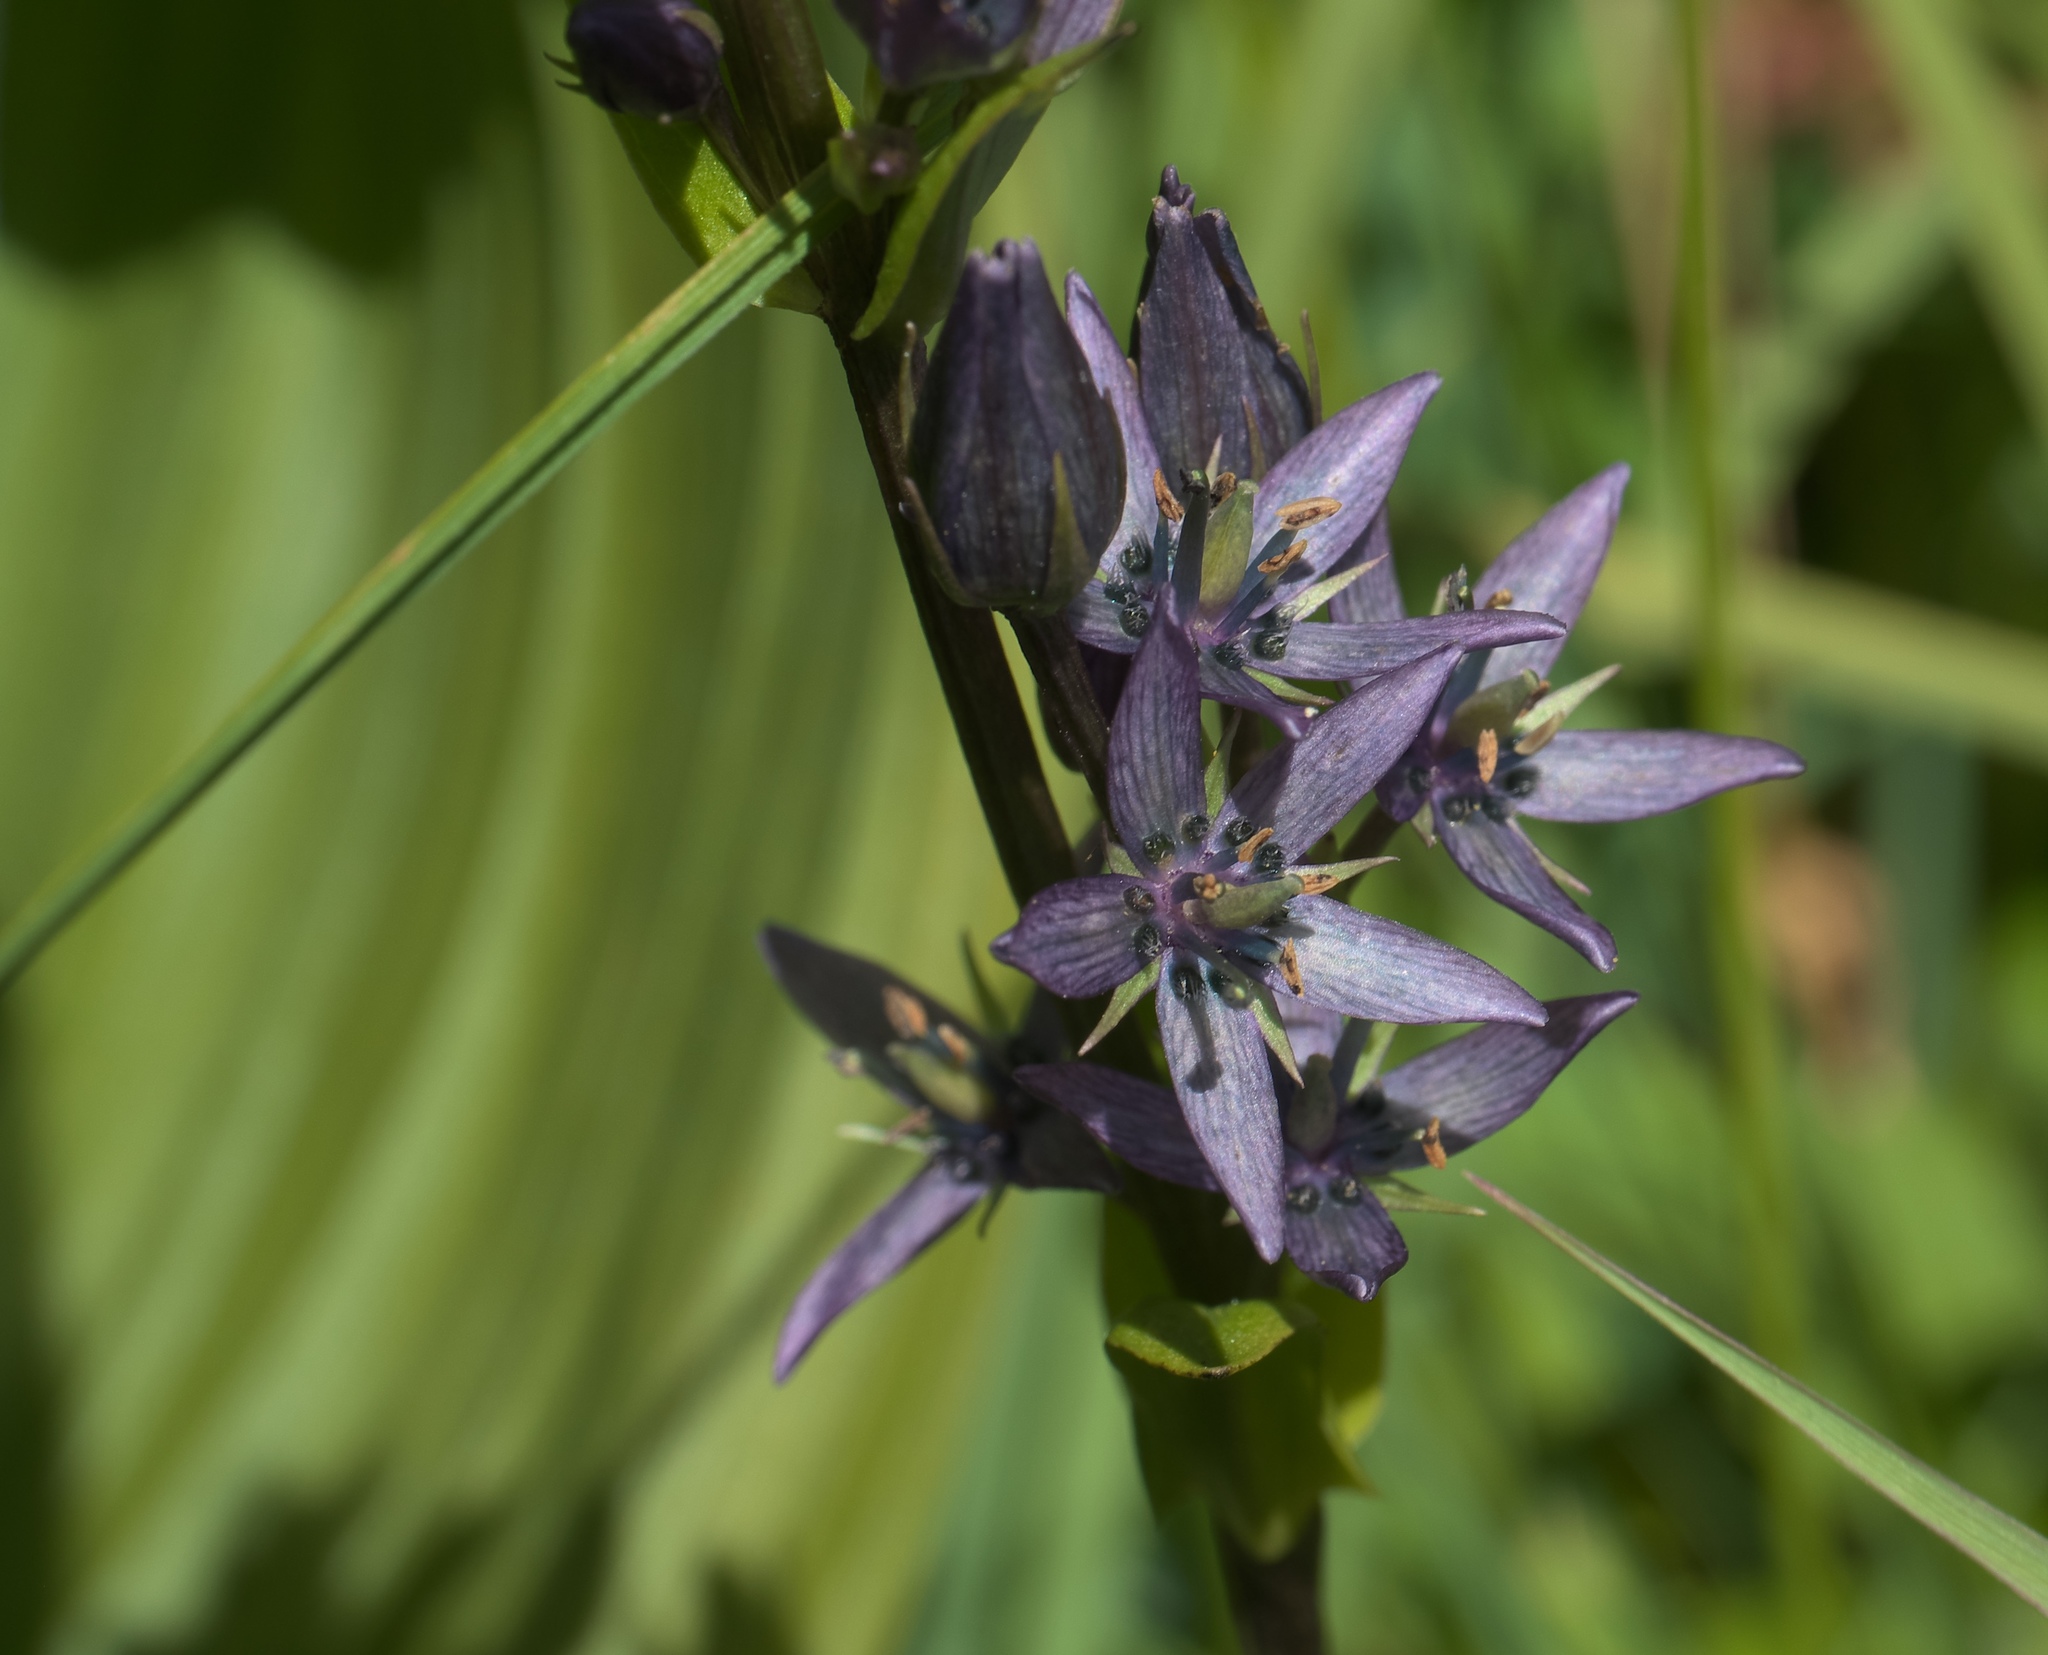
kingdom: Plantae
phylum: Tracheophyta
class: Magnoliopsida
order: Gentianales
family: Gentianaceae
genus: Swertia
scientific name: Swertia perennis
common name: Alpine bog swertia
